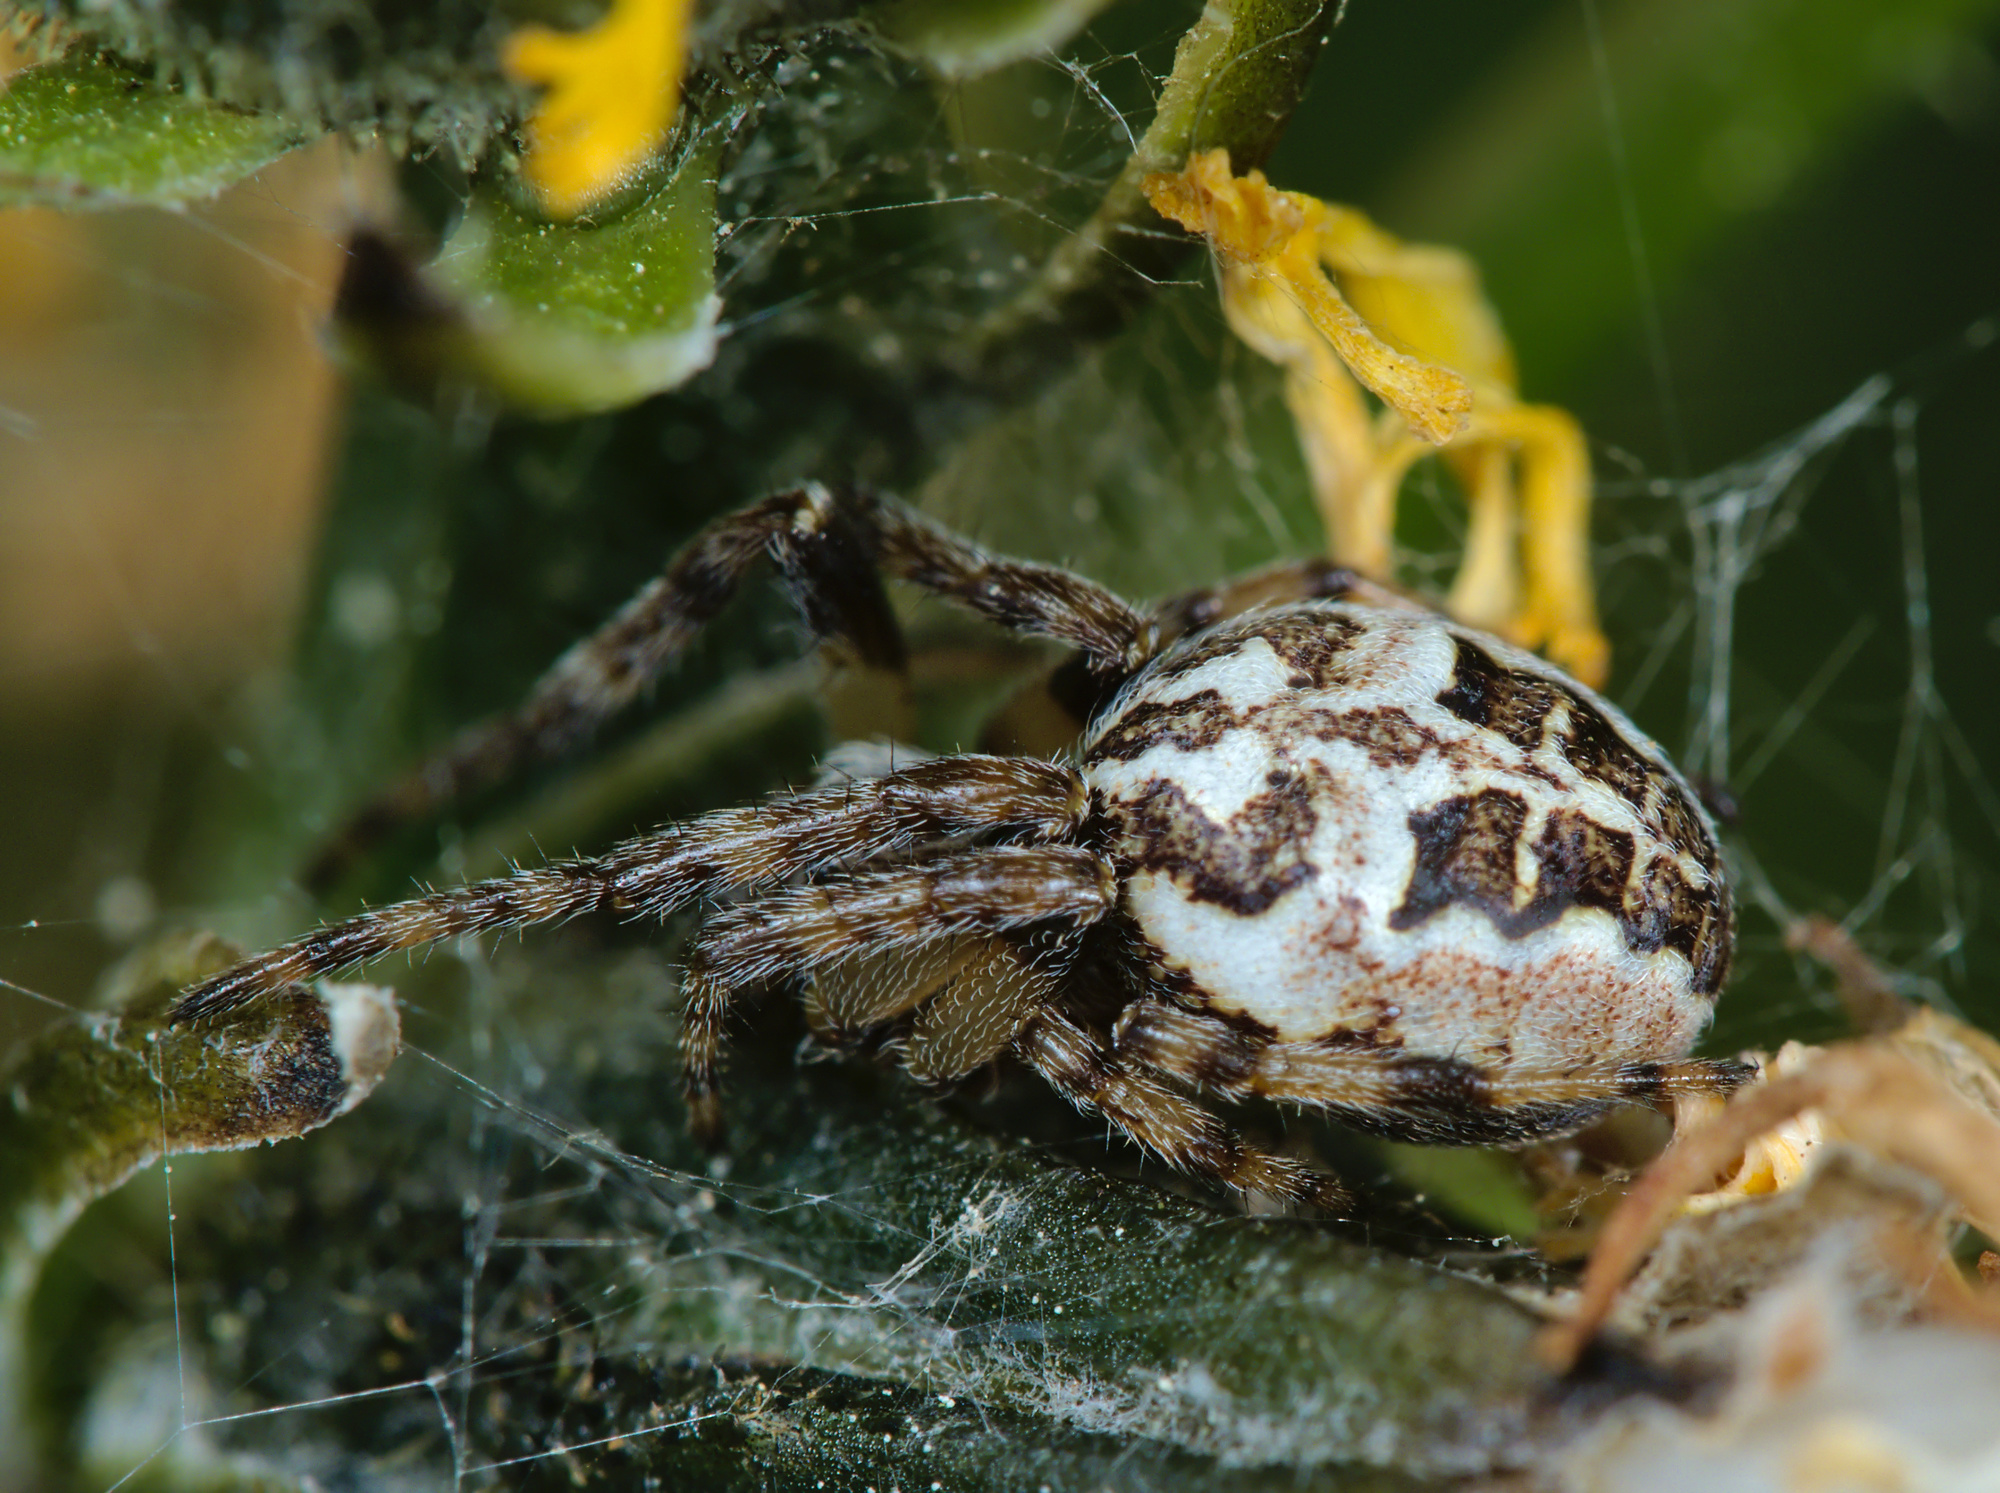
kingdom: Animalia
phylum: Arthropoda
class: Arachnida
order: Araneae
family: Araneidae
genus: Larinioides
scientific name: Larinioides cornutus
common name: Furrow orbweaver
